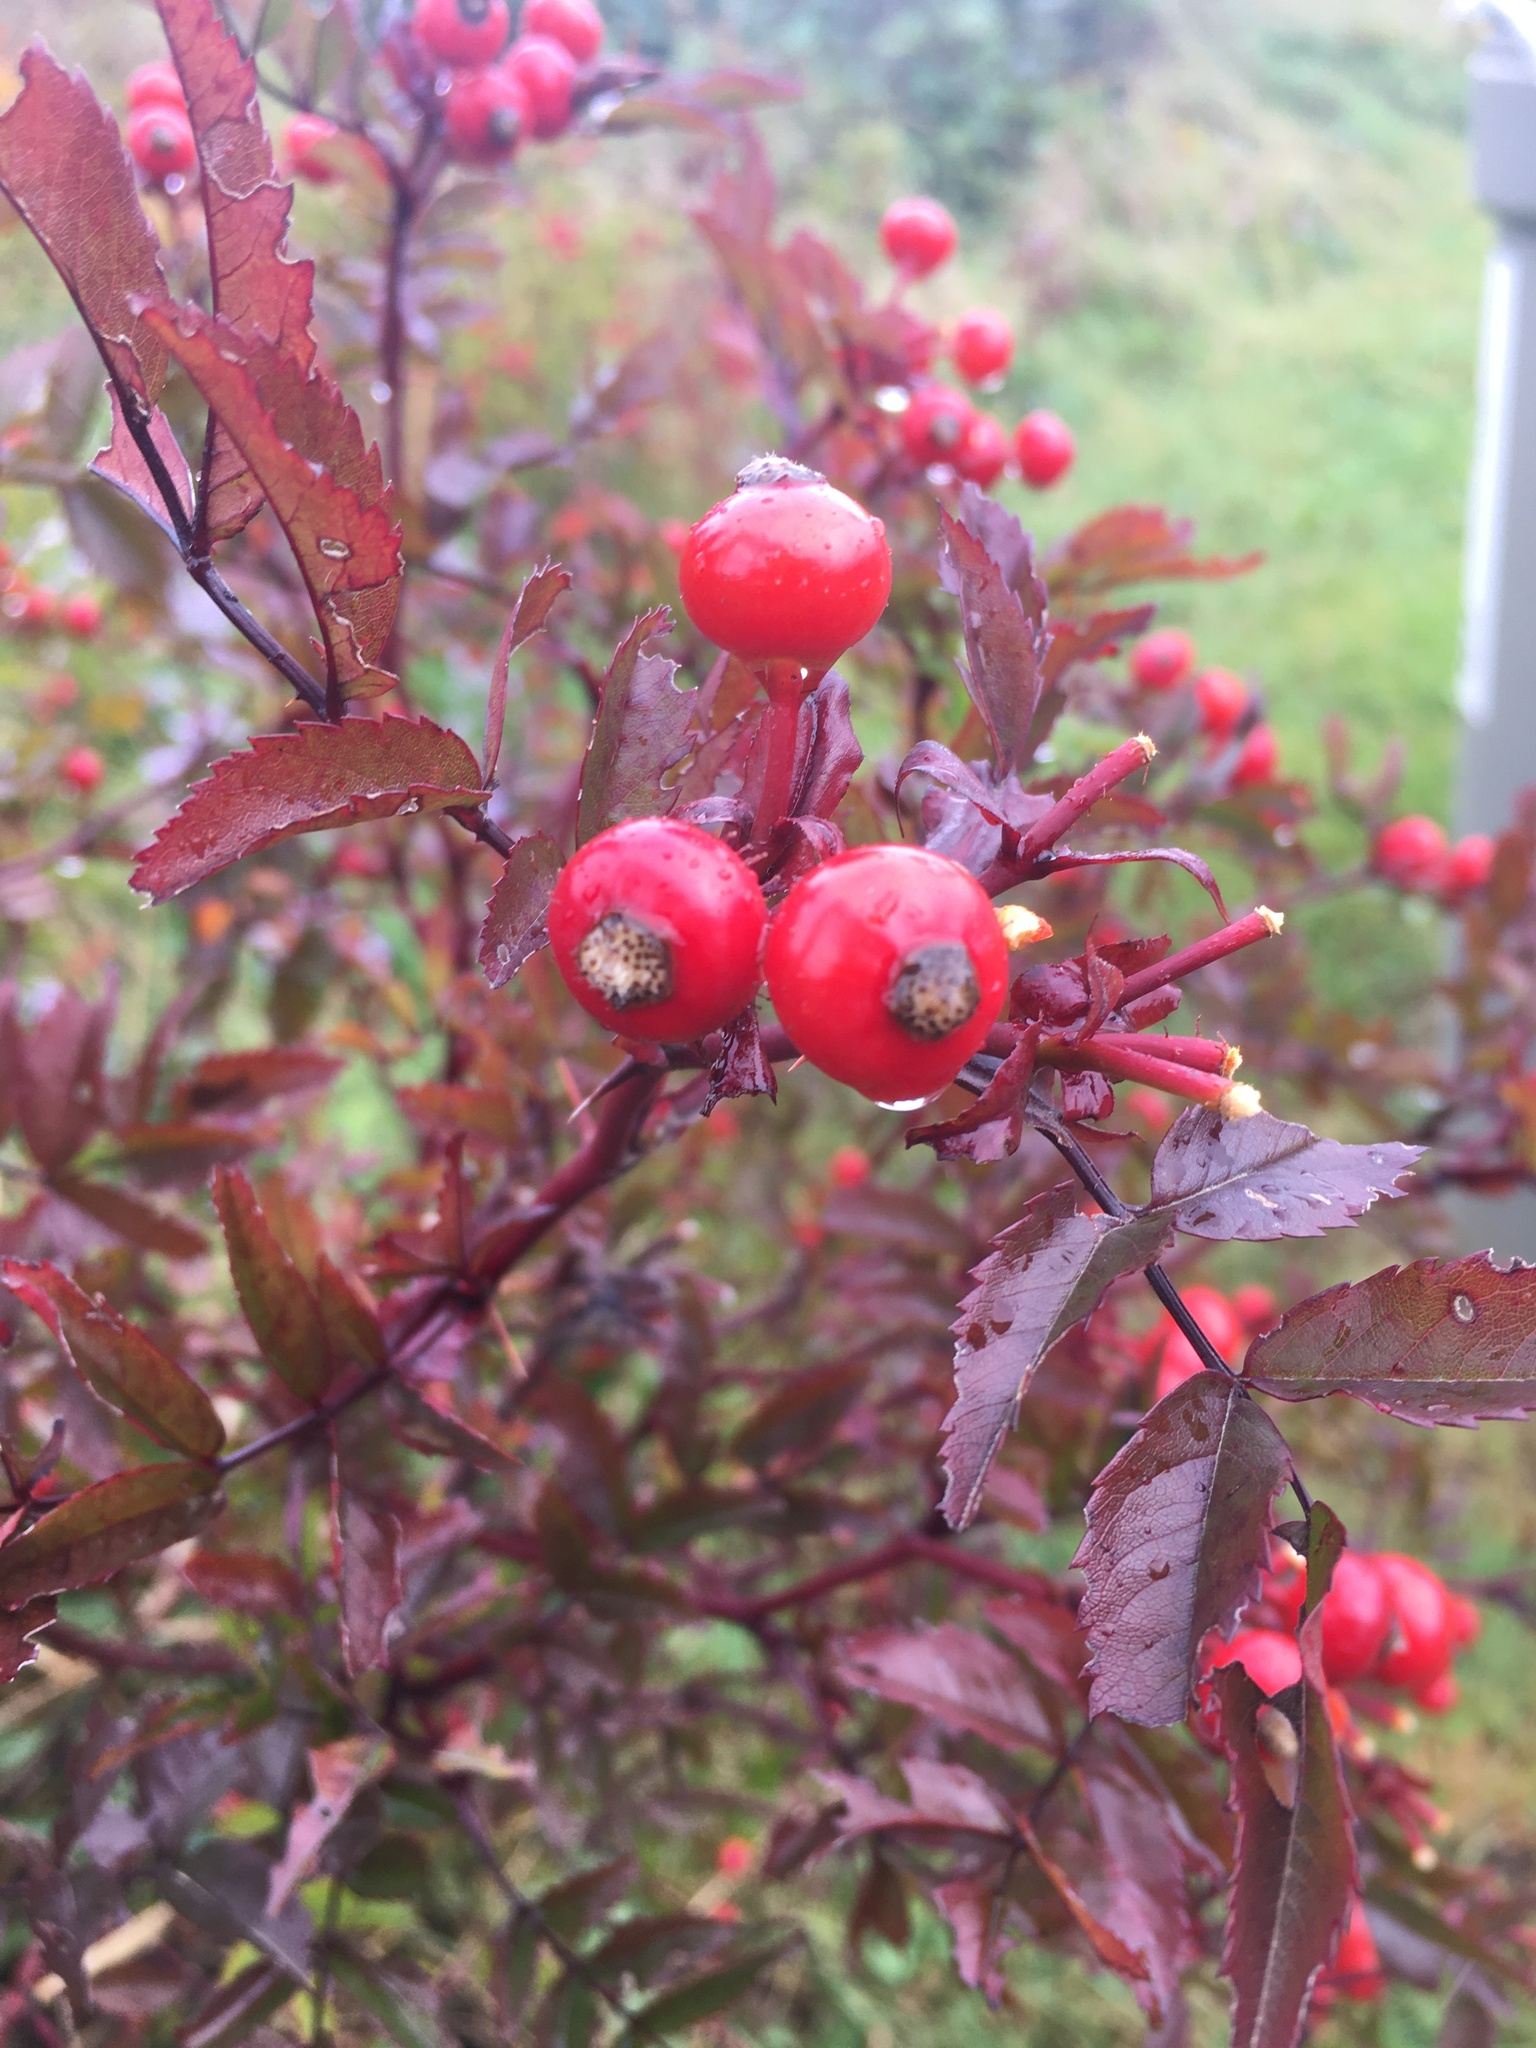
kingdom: Plantae
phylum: Tracheophyta
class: Magnoliopsida
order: Rosales
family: Rosaceae
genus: Rosa
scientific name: Rosa virginiana
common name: Virginian rose
